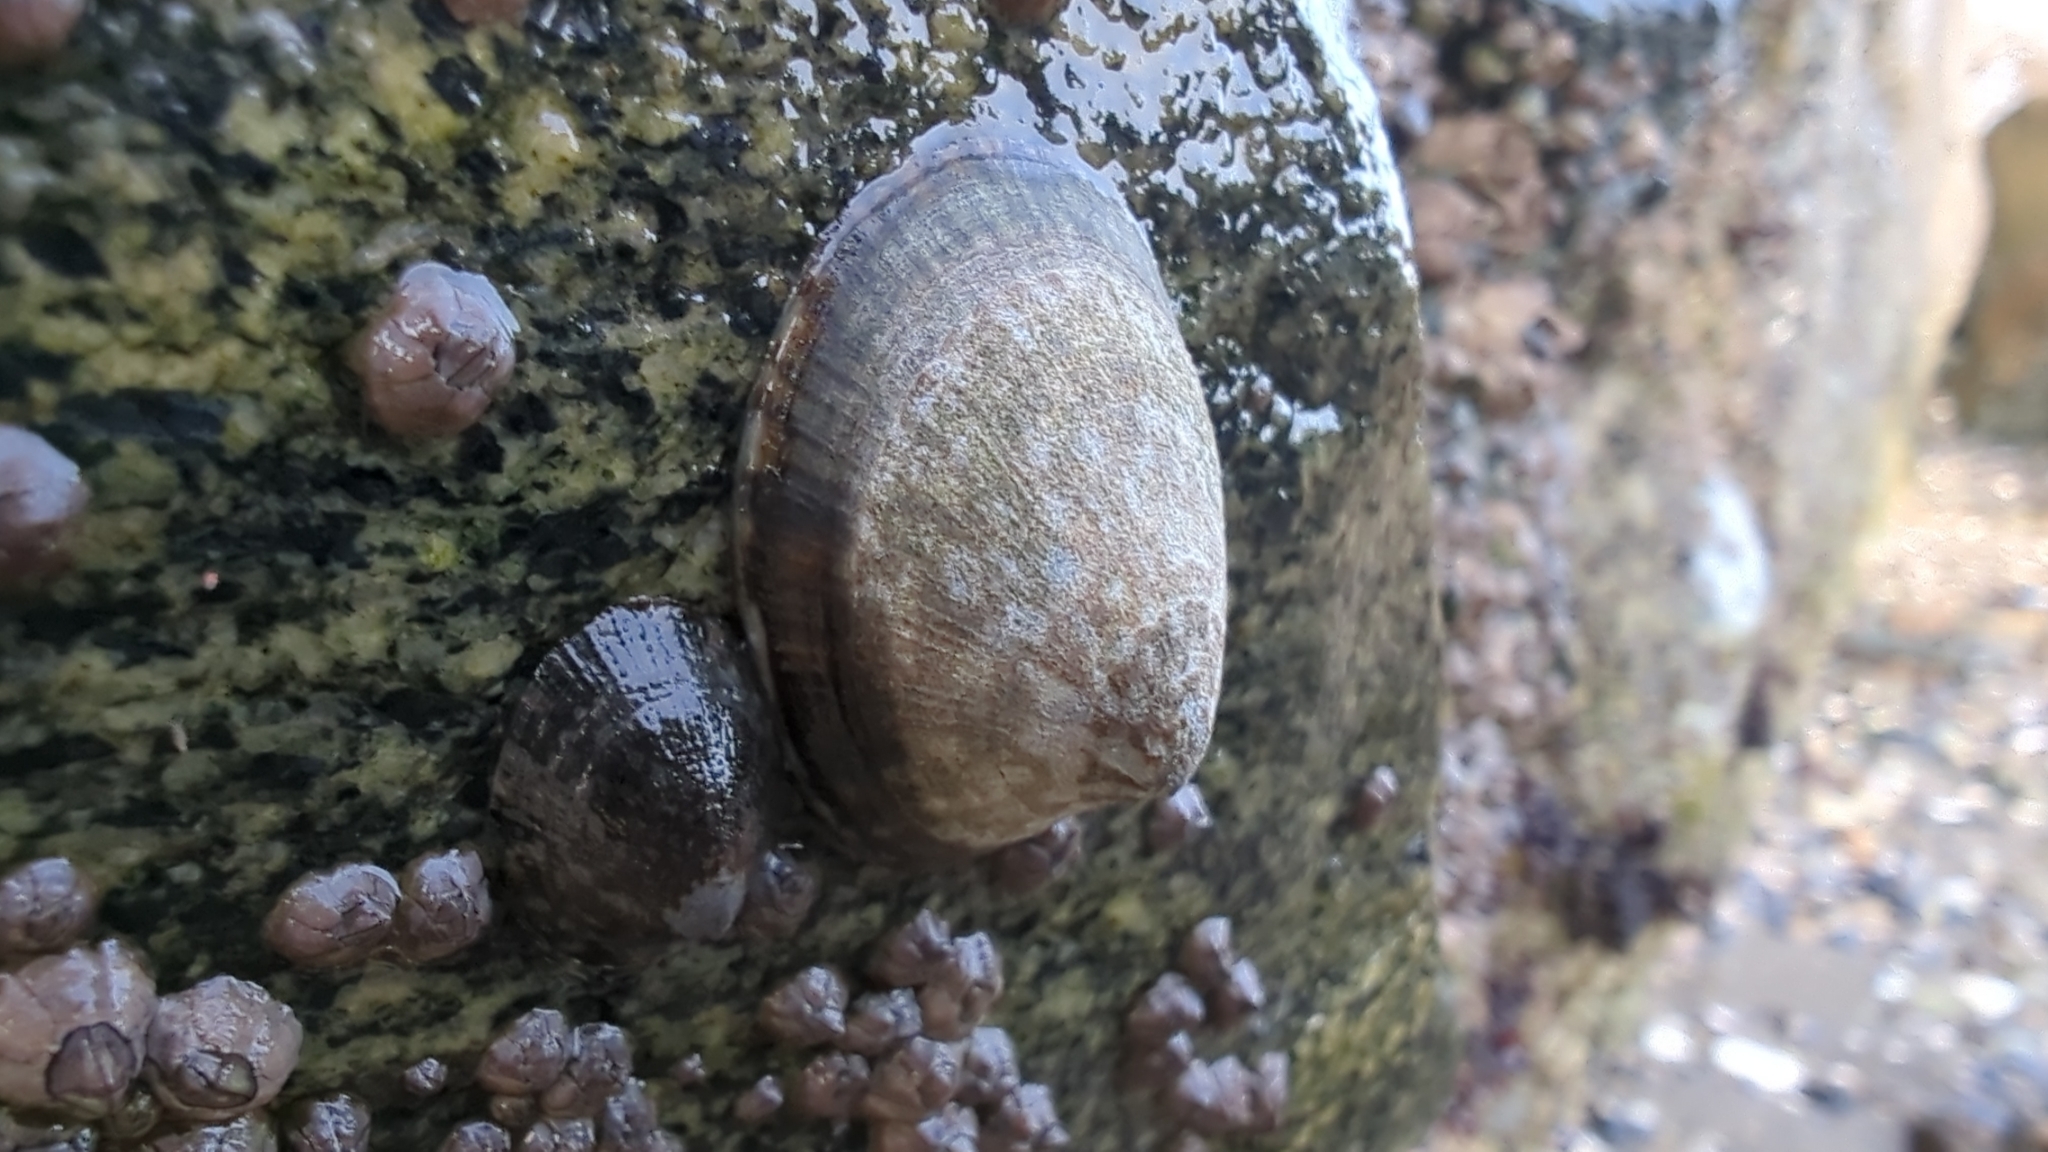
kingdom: Animalia
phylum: Mollusca
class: Gastropoda
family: Lottiidae
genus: Lottia
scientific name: Lottia persona
